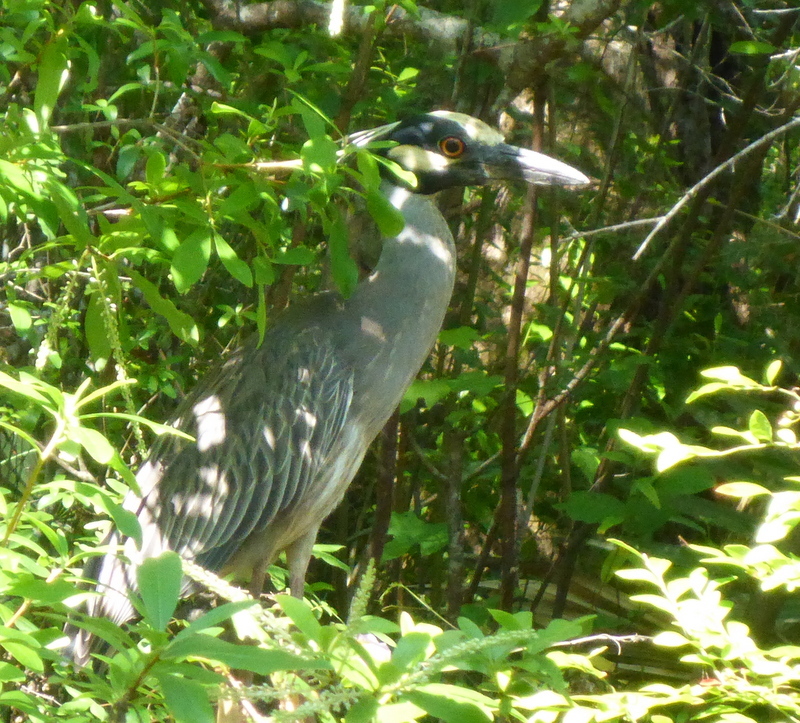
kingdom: Animalia
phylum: Chordata
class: Aves
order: Pelecaniformes
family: Ardeidae
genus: Nyctanassa
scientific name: Nyctanassa violacea
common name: Yellow-crowned night heron
